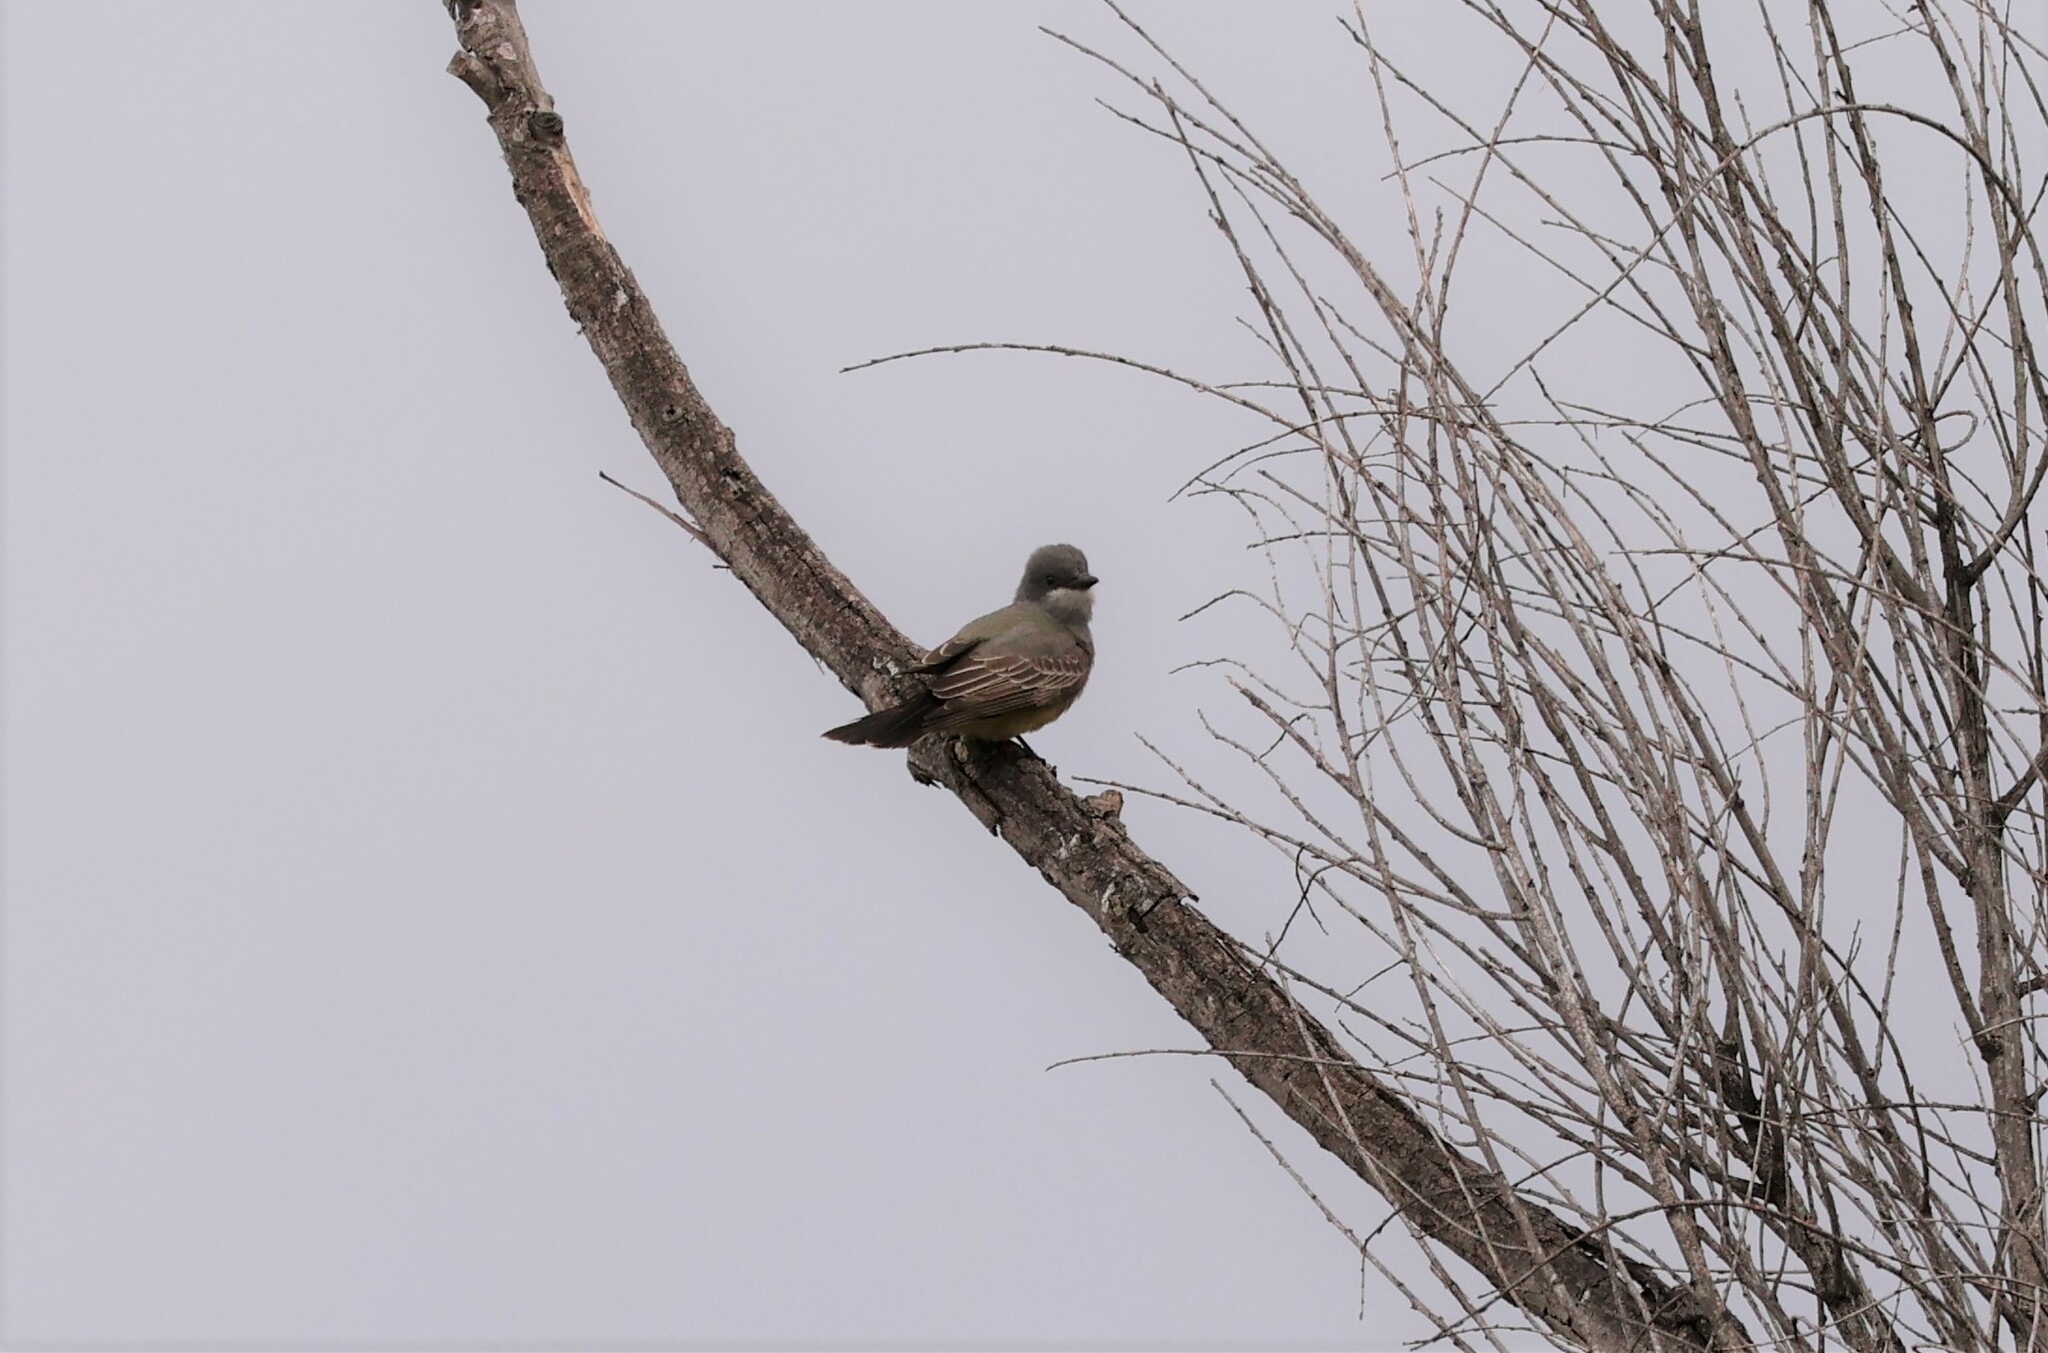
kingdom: Animalia
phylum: Chordata
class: Aves
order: Passeriformes
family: Tyrannidae
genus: Tyrannus
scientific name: Tyrannus vociferans
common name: Cassin's kingbird
